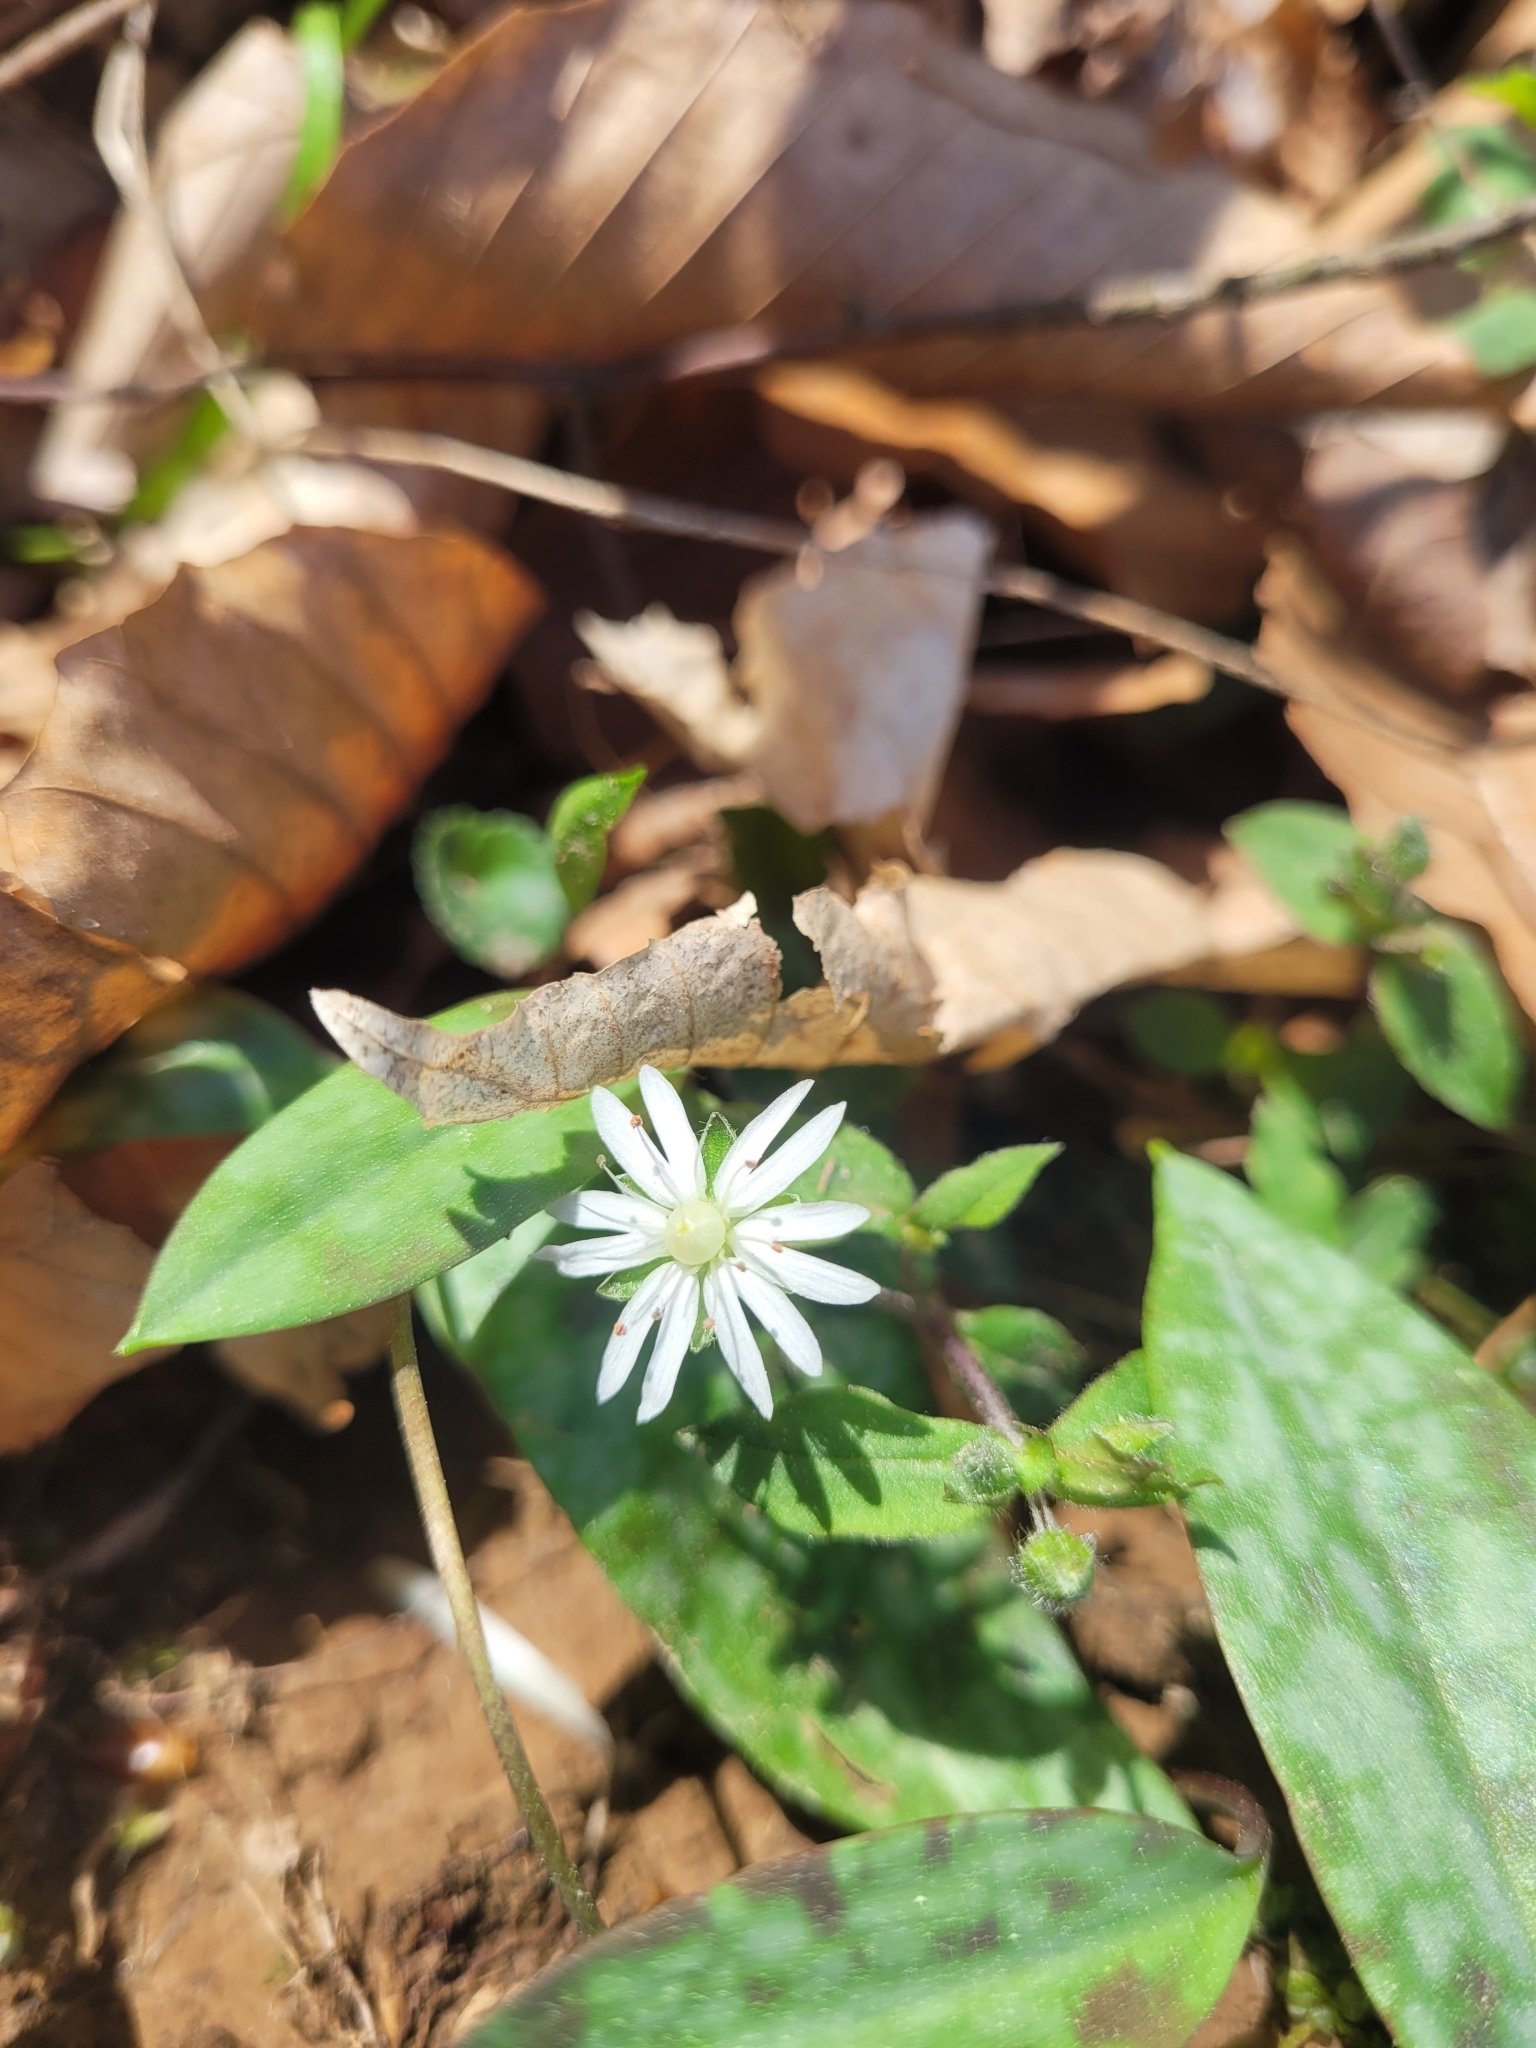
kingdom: Plantae
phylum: Tracheophyta
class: Magnoliopsida
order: Caryophyllales
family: Caryophyllaceae
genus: Stellaria
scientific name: Stellaria pubera
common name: Star chickweed
